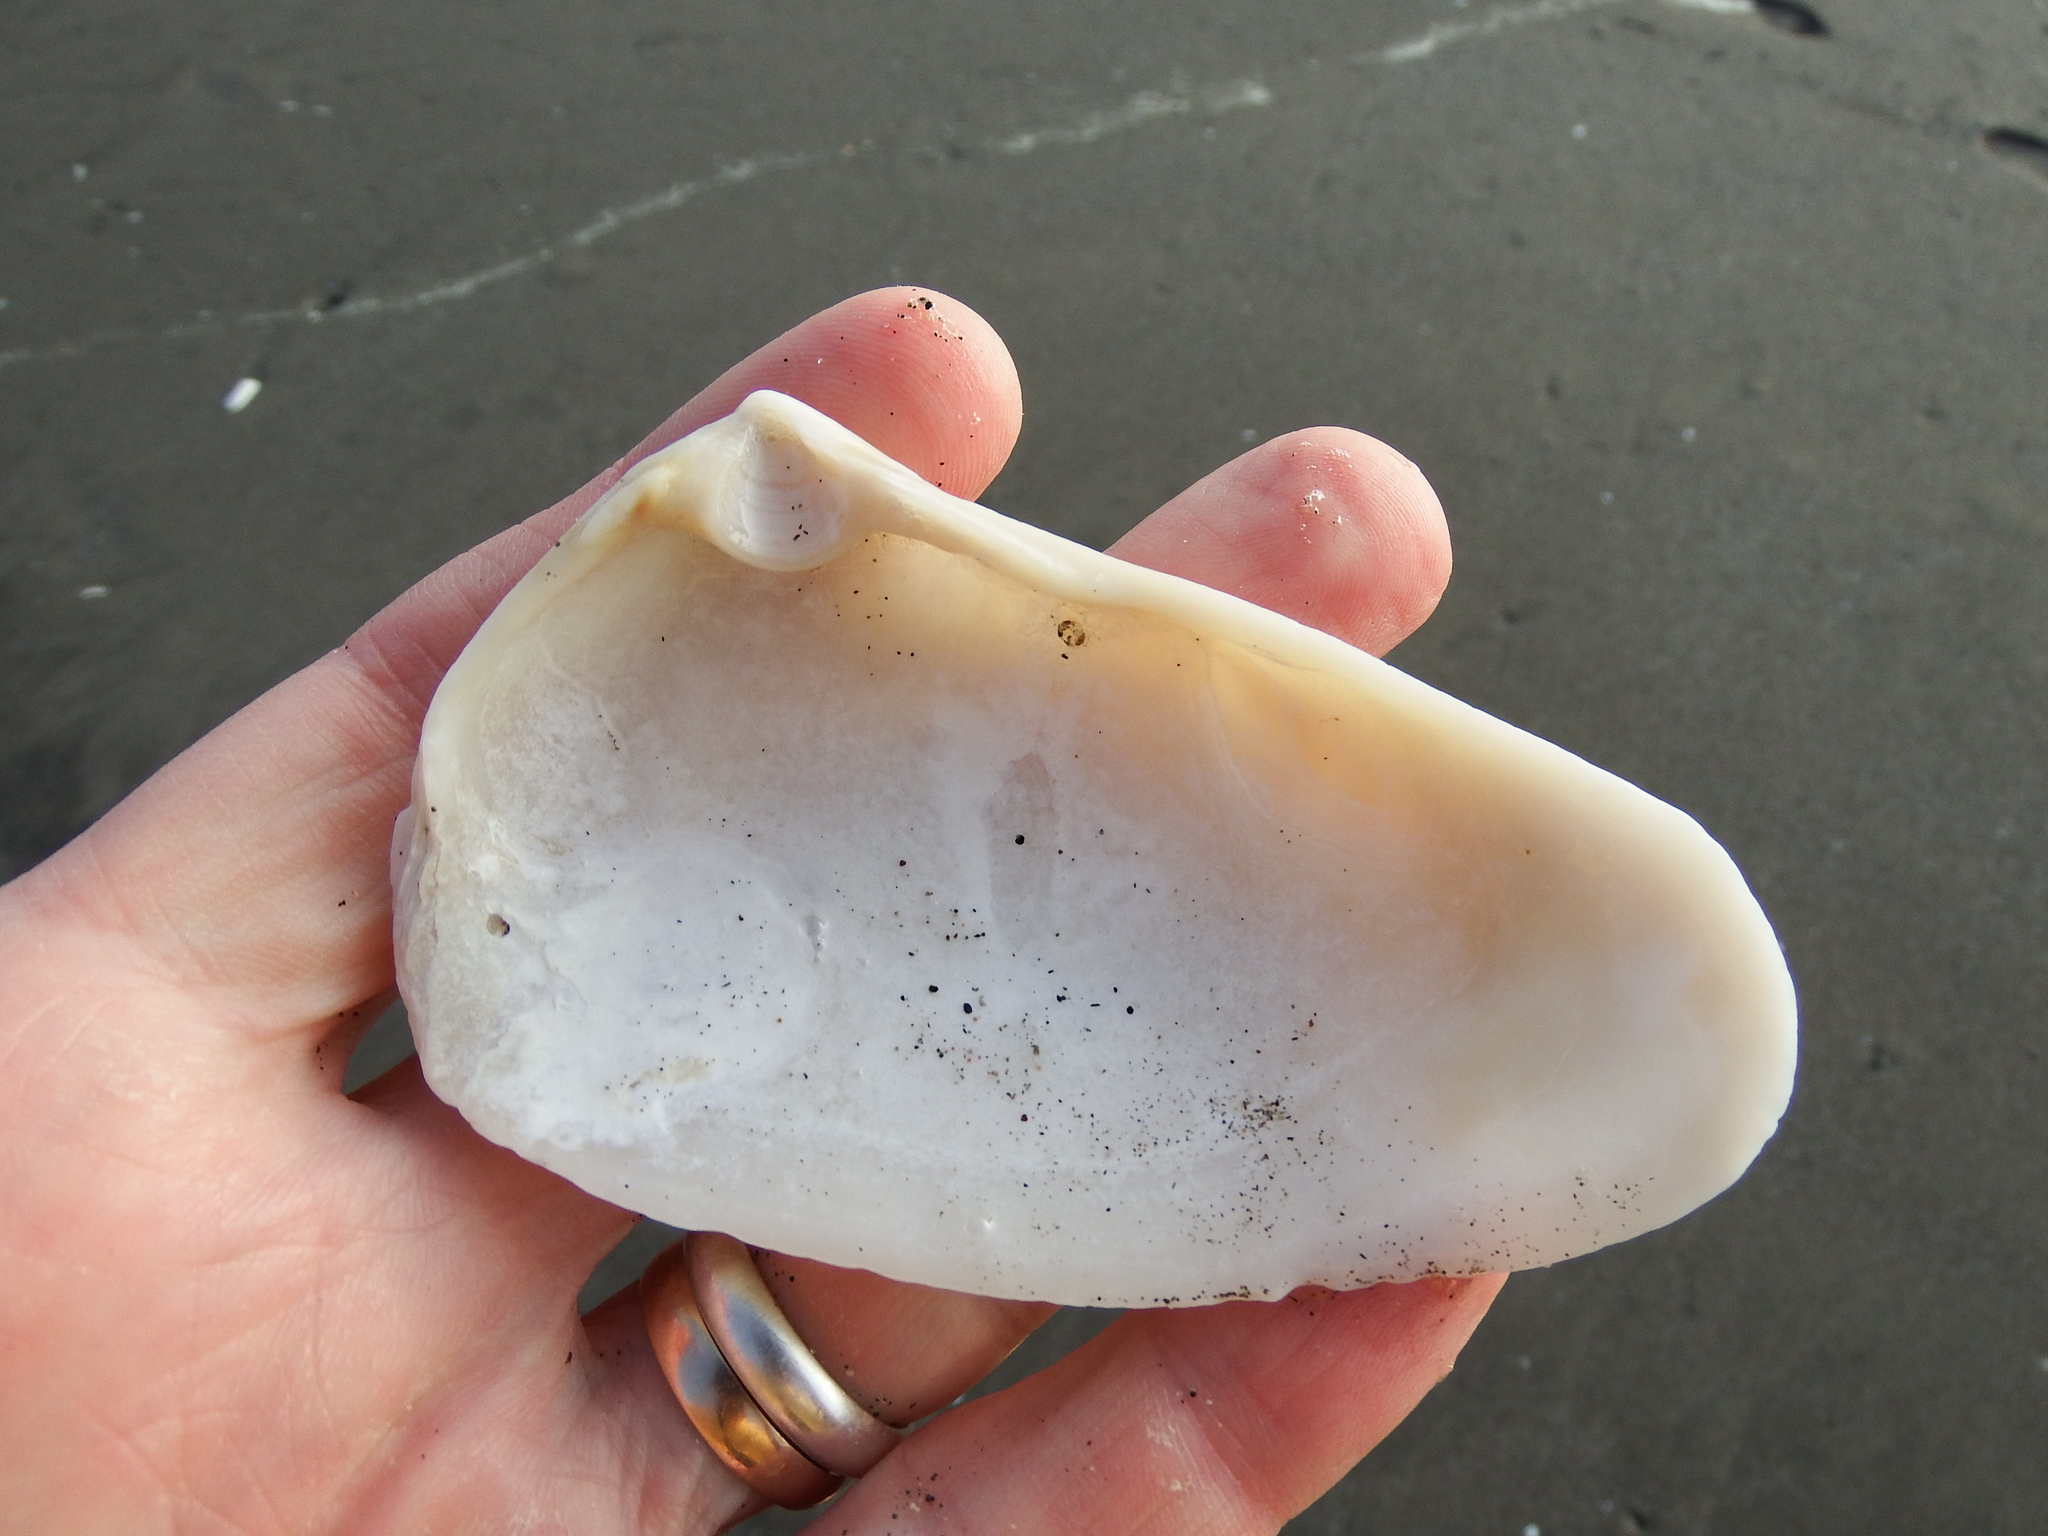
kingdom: Animalia
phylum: Mollusca
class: Bivalvia
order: Venerida
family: Mesodesmatidae
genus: Mesodesma
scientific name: Mesodesma donacium
